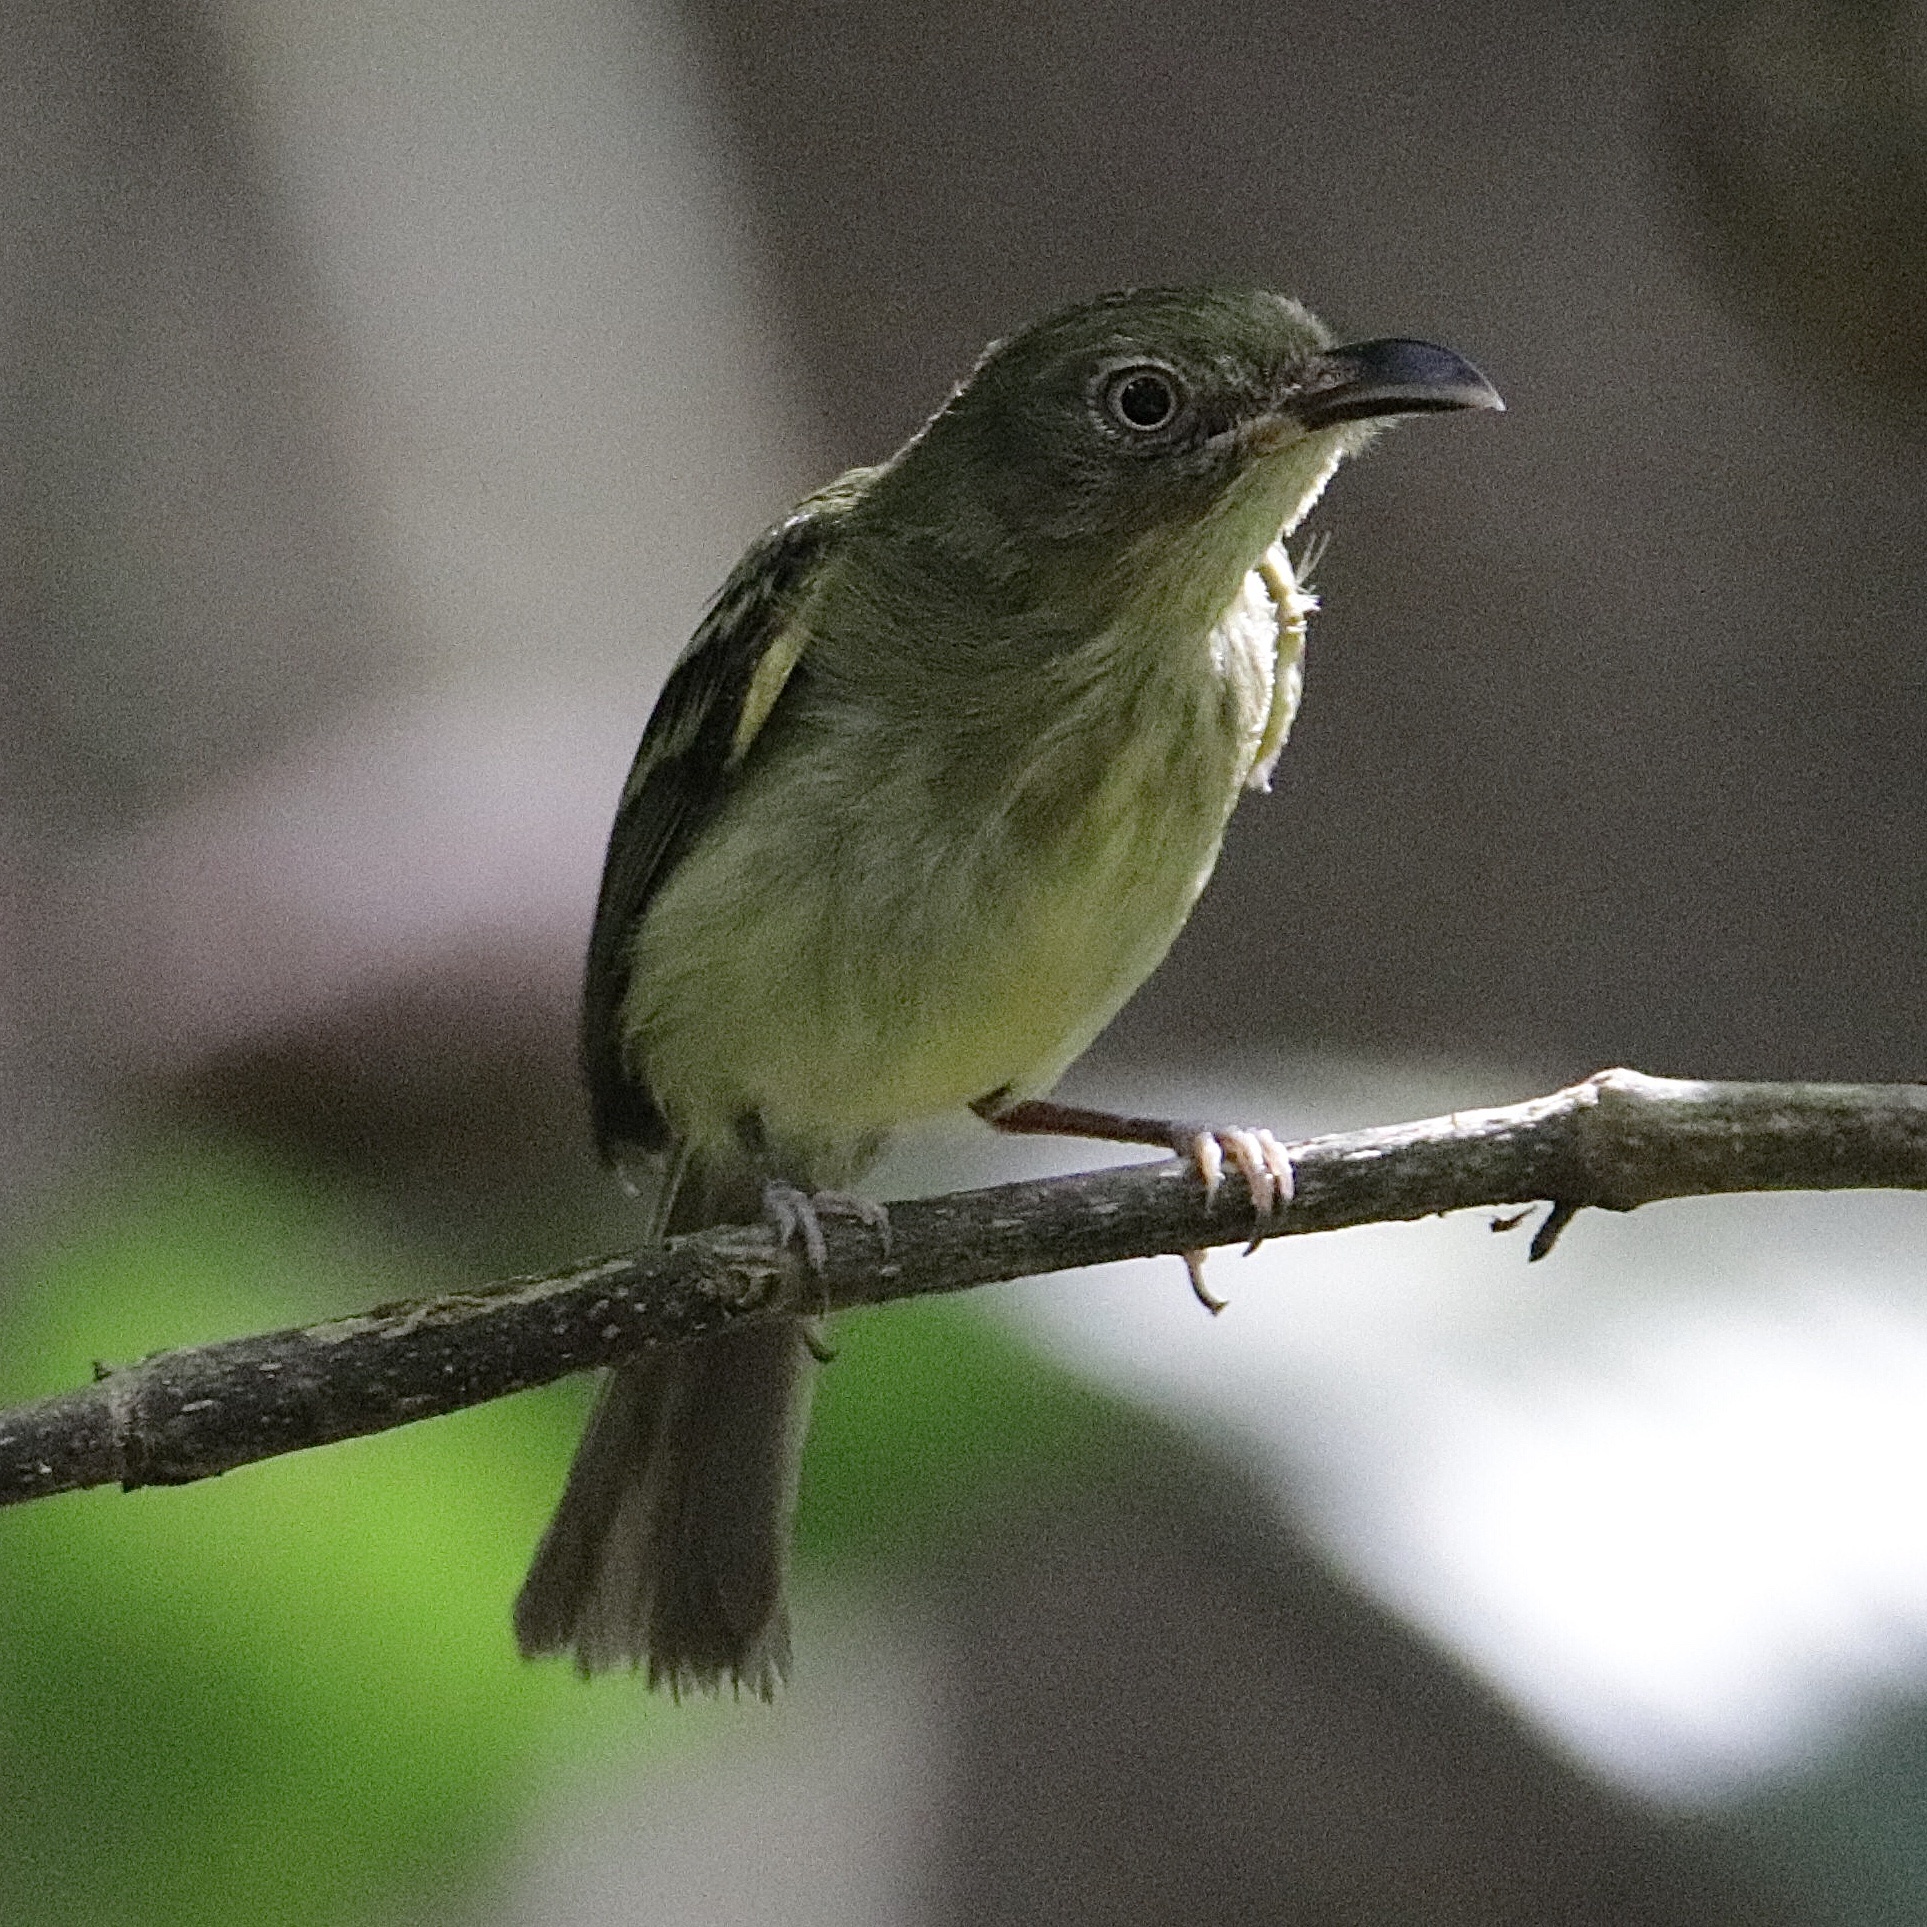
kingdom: Animalia
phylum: Chordata
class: Aves
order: Passeriformes
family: Tyrannidae
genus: Oncostoma
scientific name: Oncostoma olivaceum
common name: Southern bentbill
